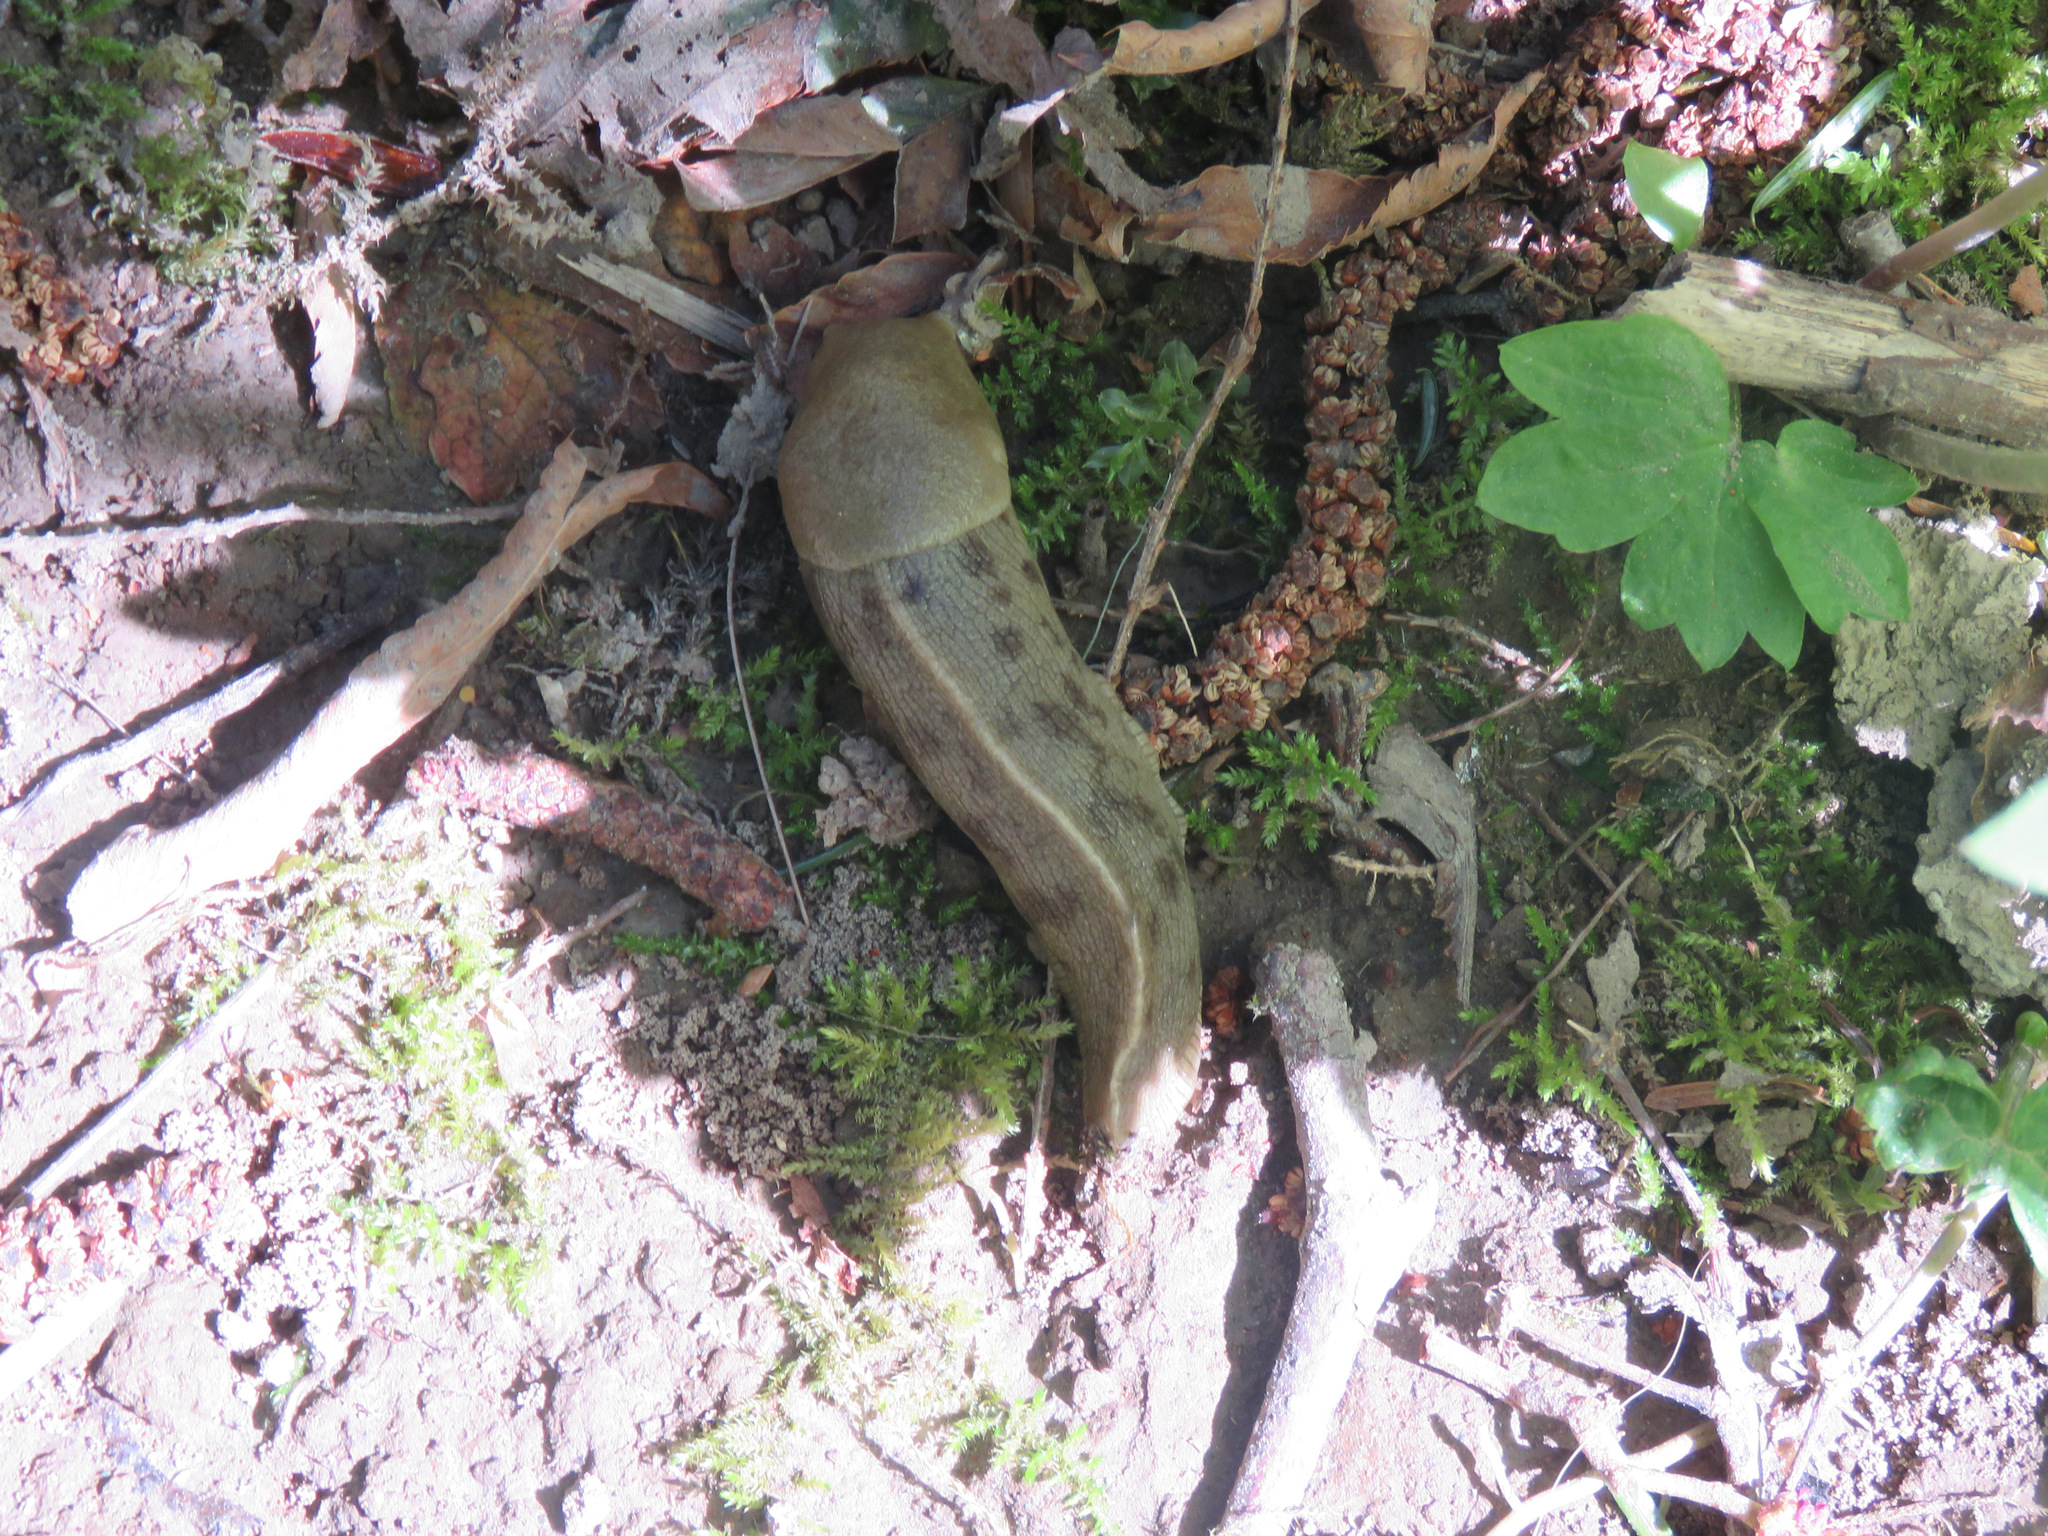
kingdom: Animalia
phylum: Mollusca
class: Gastropoda
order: Stylommatophora
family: Ariolimacidae
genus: Ariolimax
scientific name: Ariolimax columbianus
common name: Pacific banana slug
